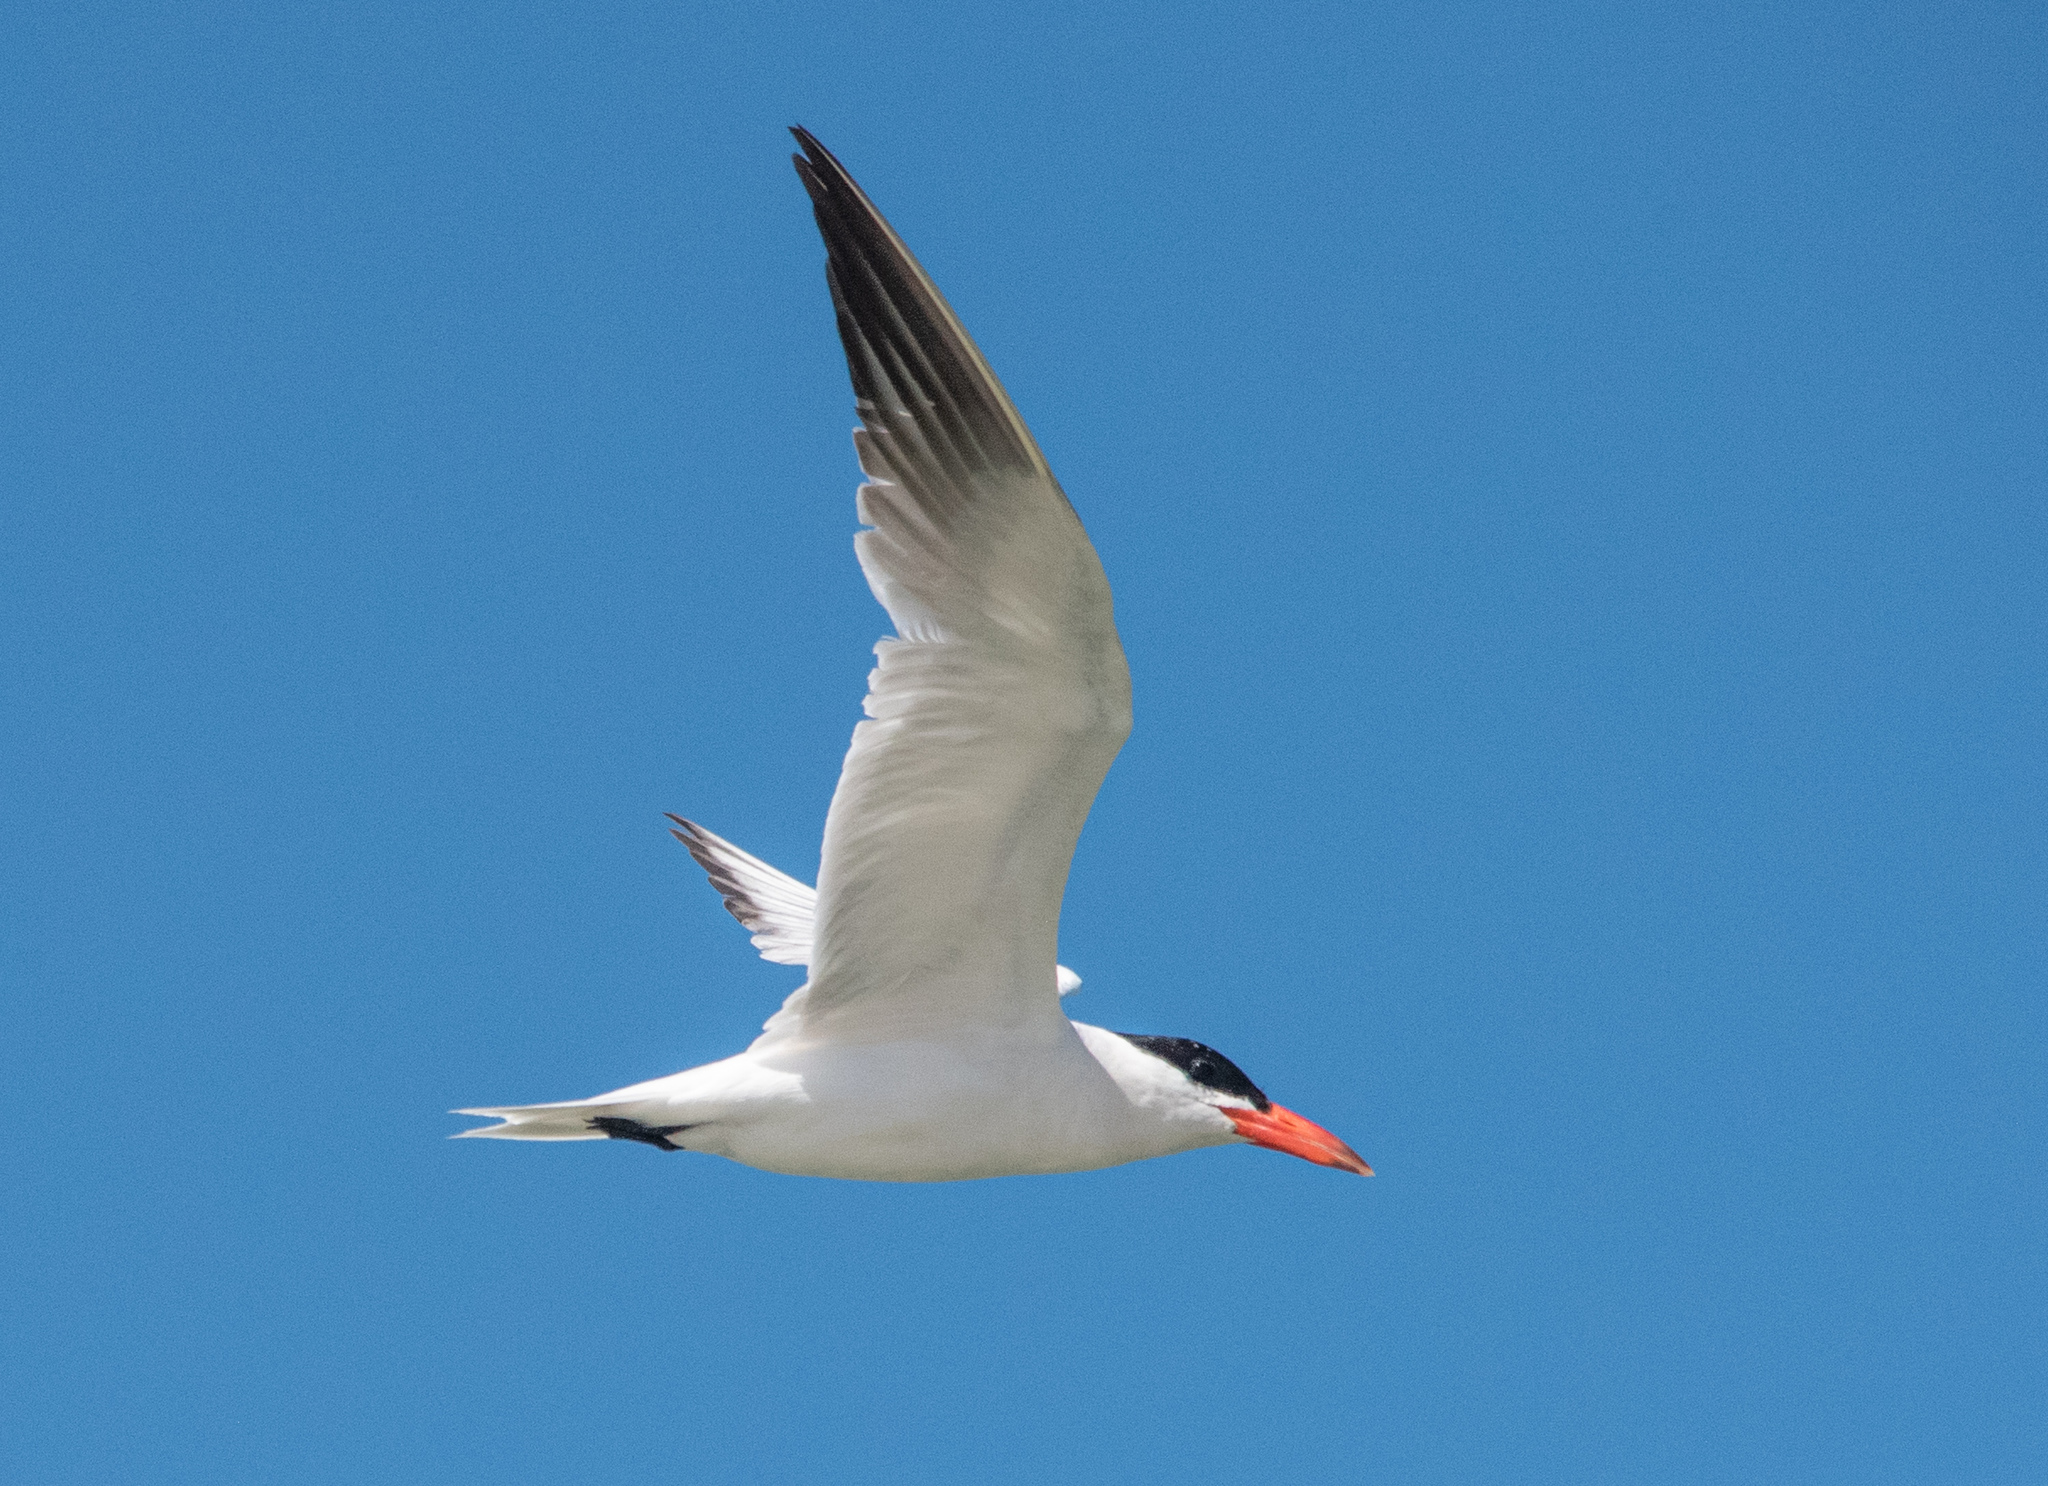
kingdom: Animalia
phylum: Chordata
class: Aves
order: Charadriiformes
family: Laridae
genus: Hydroprogne
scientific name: Hydroprogne caspia
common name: Caspian tern
